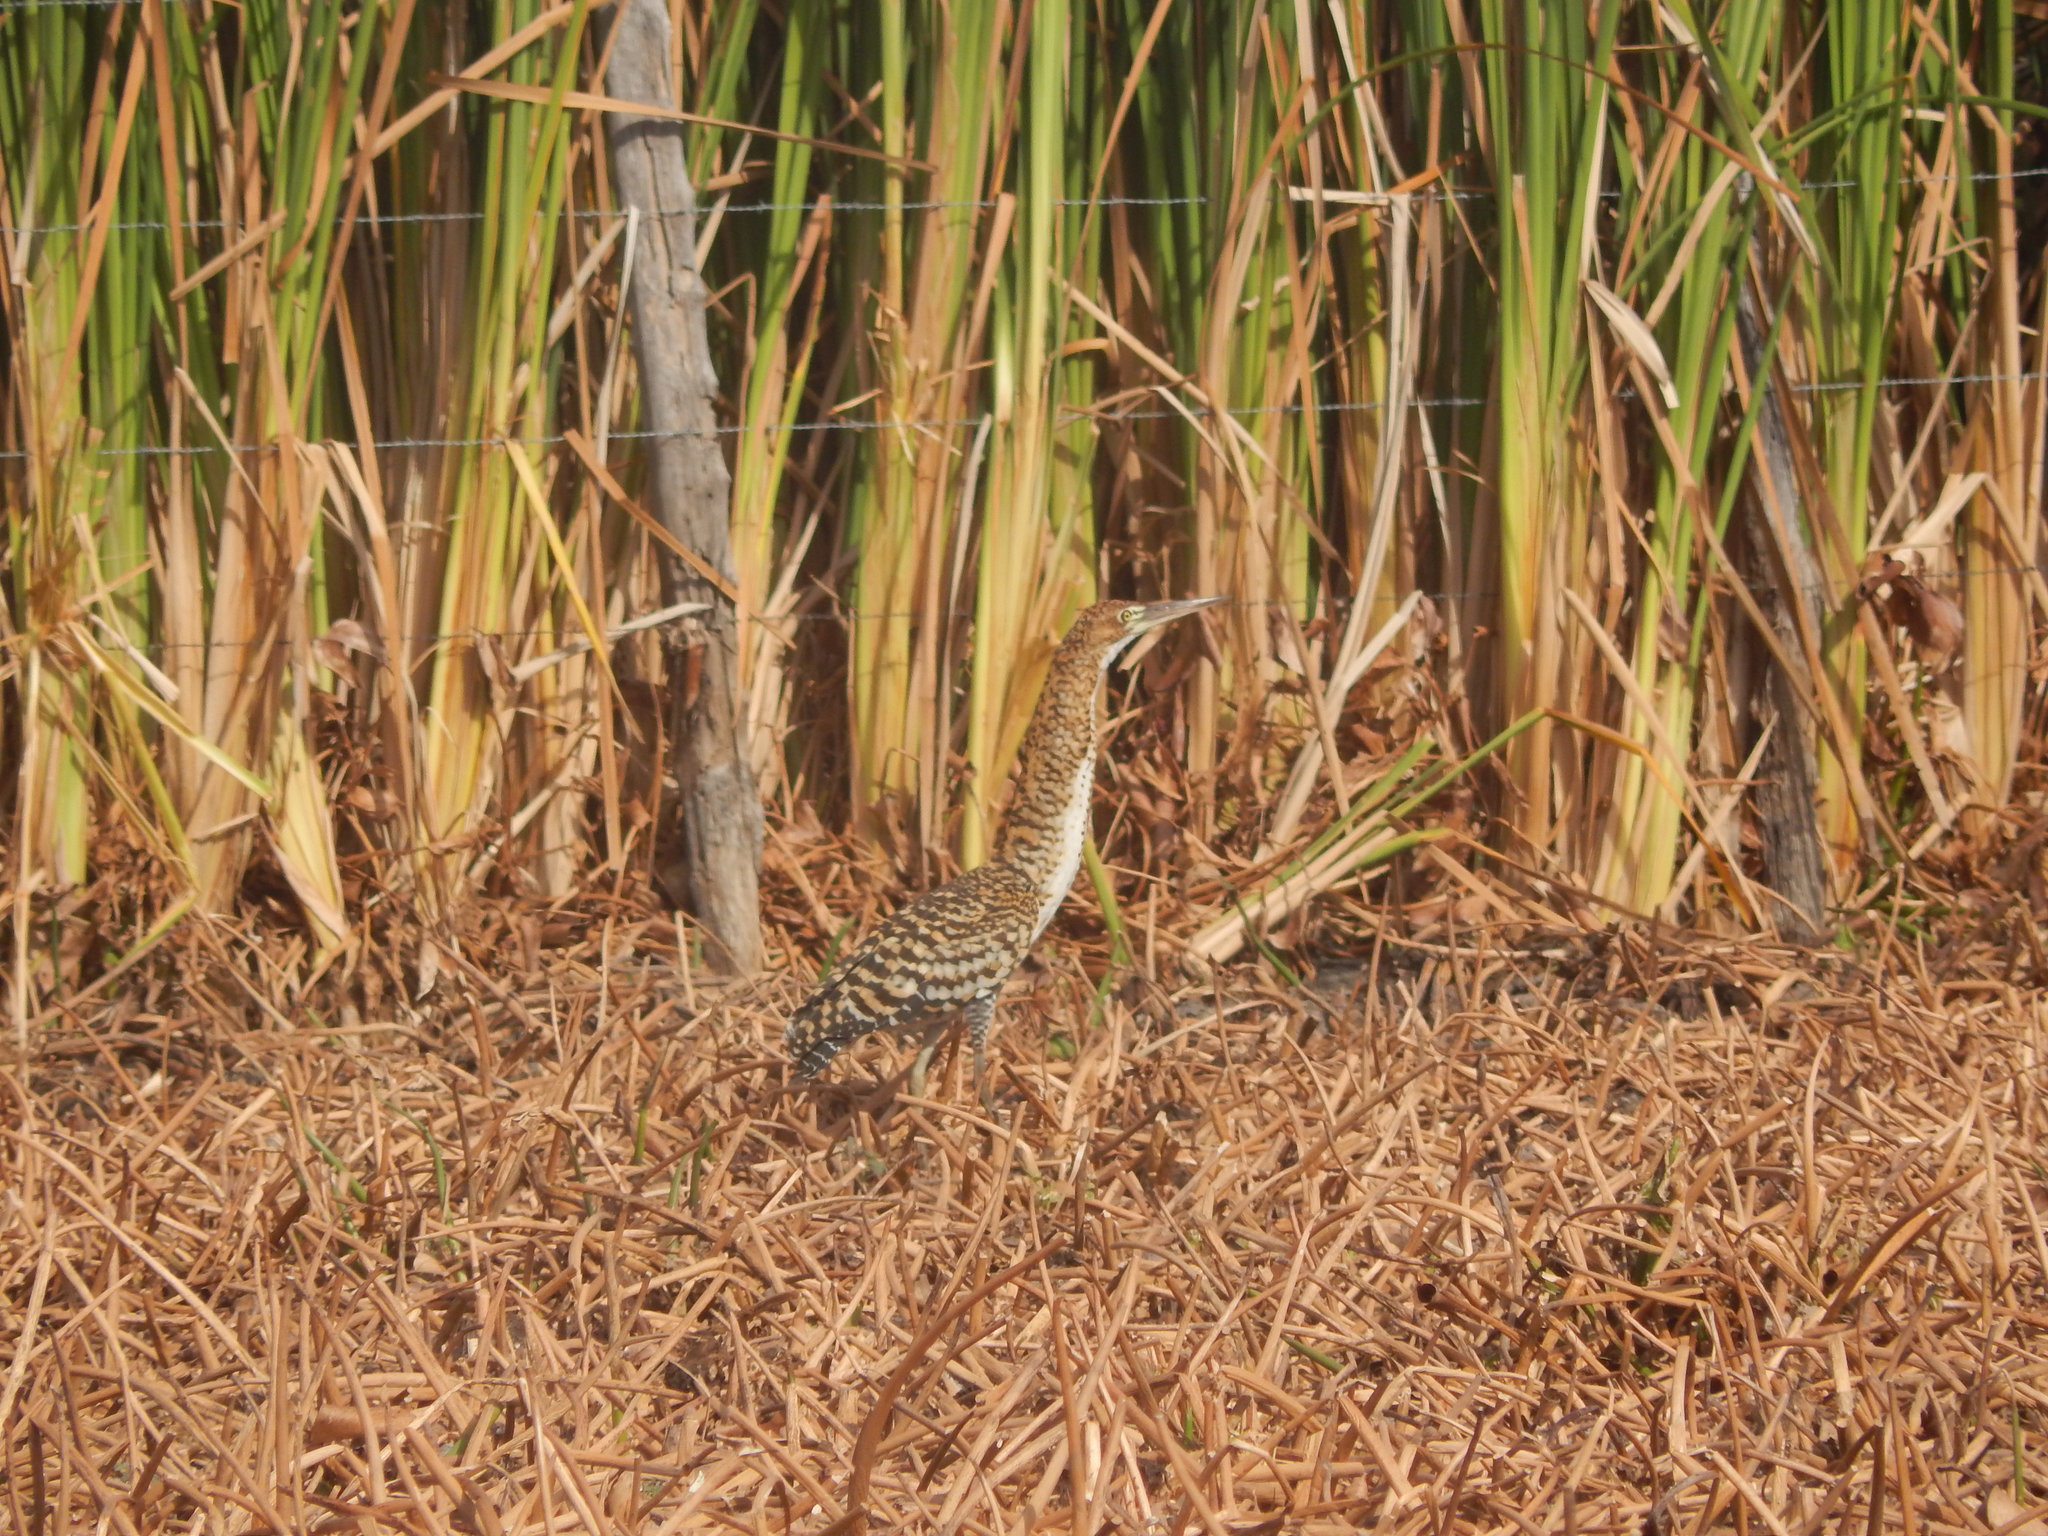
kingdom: Animalia
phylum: Chordata
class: Aves
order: Pelecaniformes
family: Ardeidae
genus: Tigrisoma
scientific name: Tigrisoma lineatum
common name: Rufescent tiger-heron
